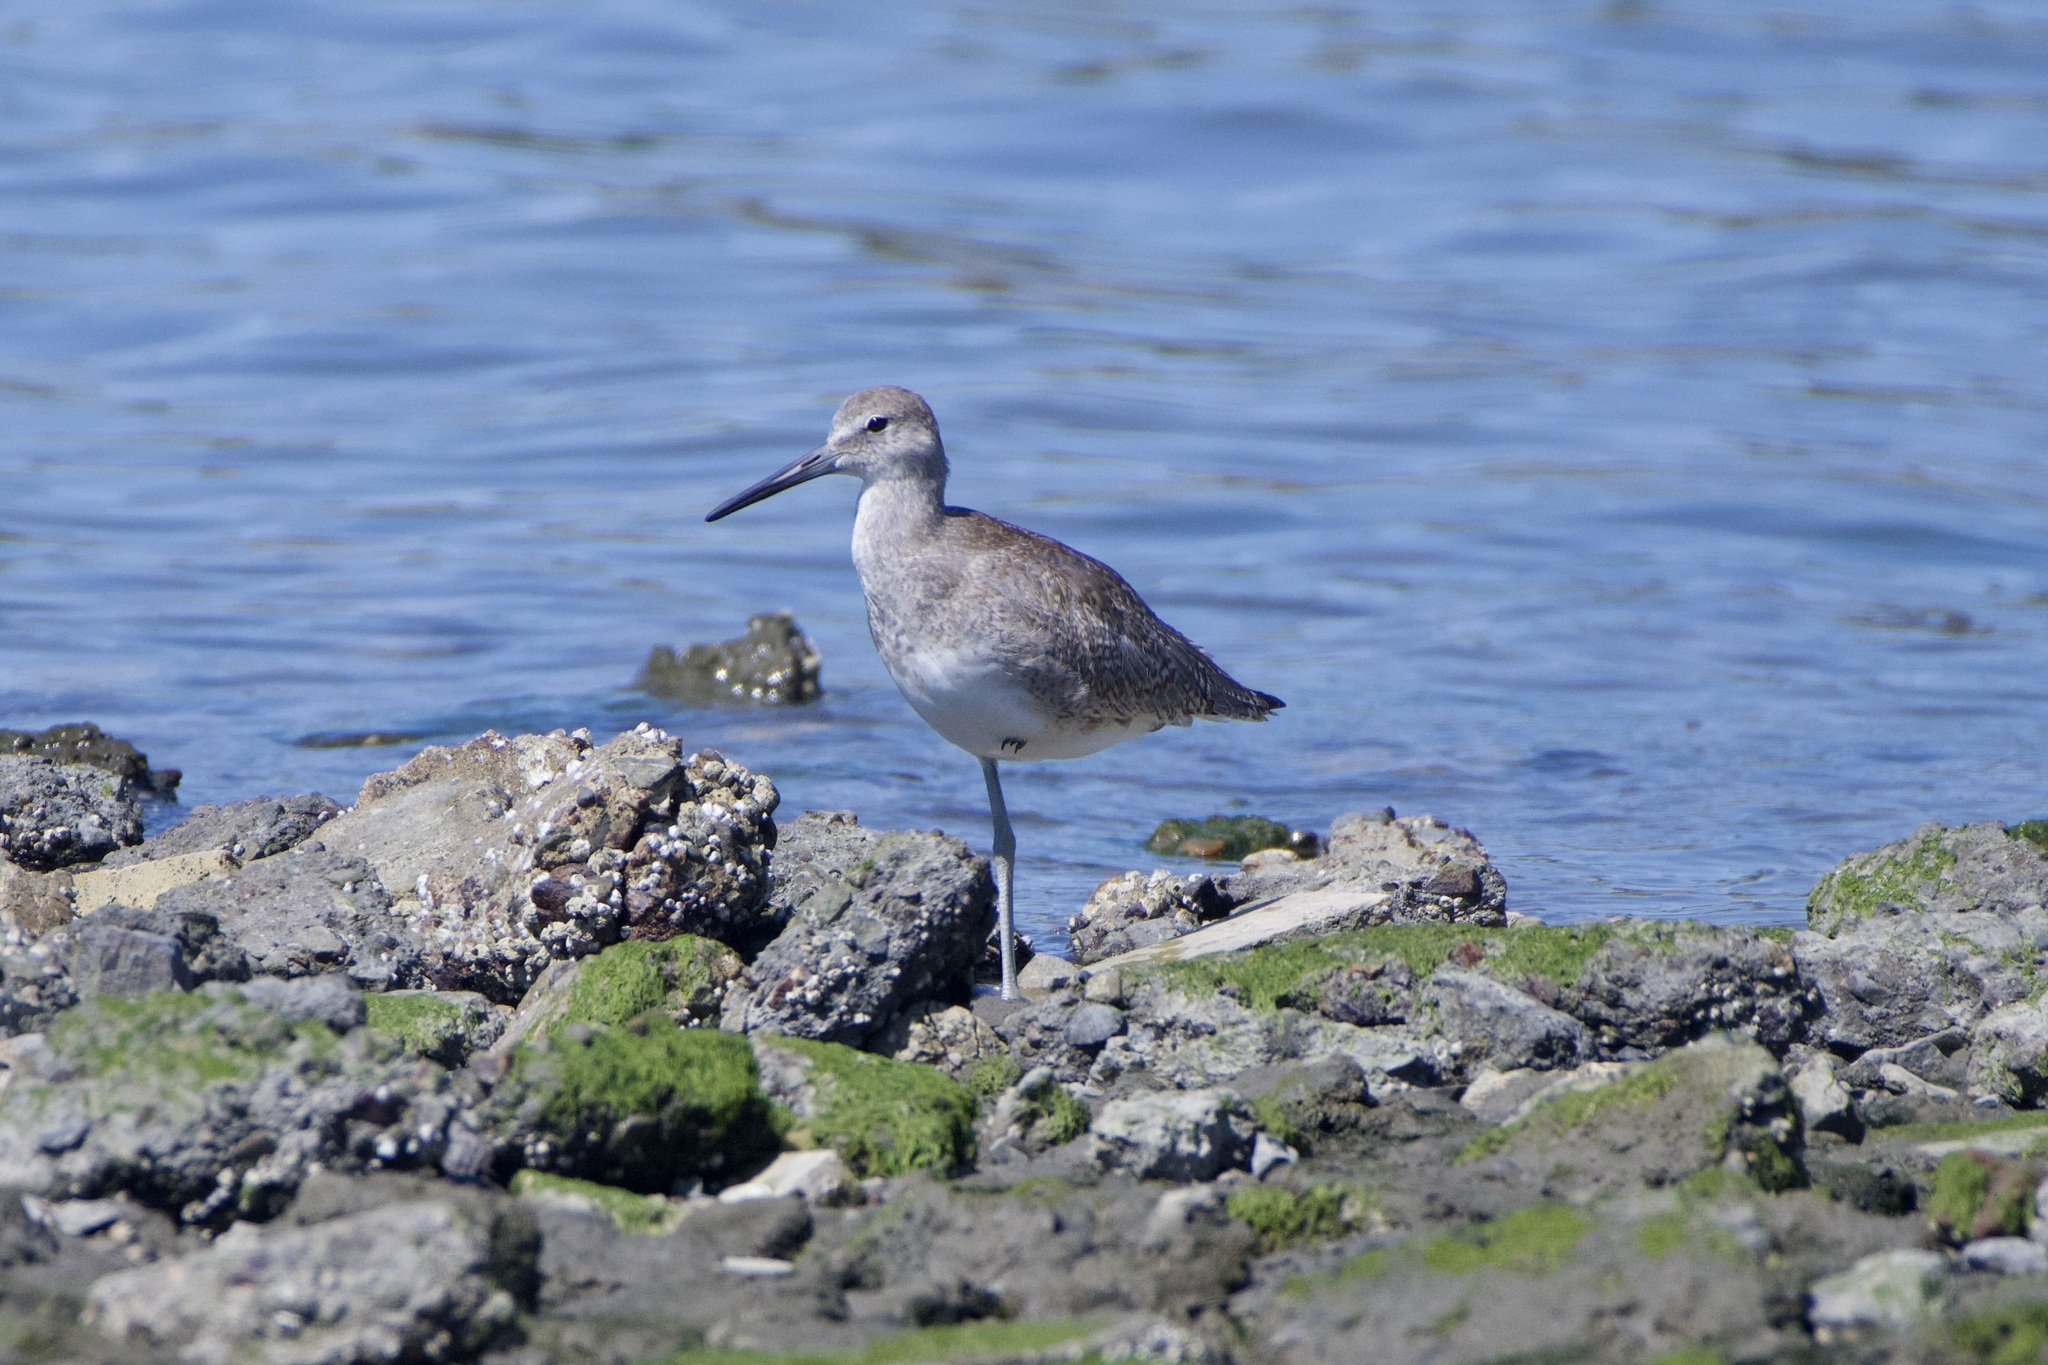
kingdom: Animalia
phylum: Chordata
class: Aves
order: Charadriiformes
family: Scolopacidae
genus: Tringa
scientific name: Tringa semipalmata
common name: Willet
